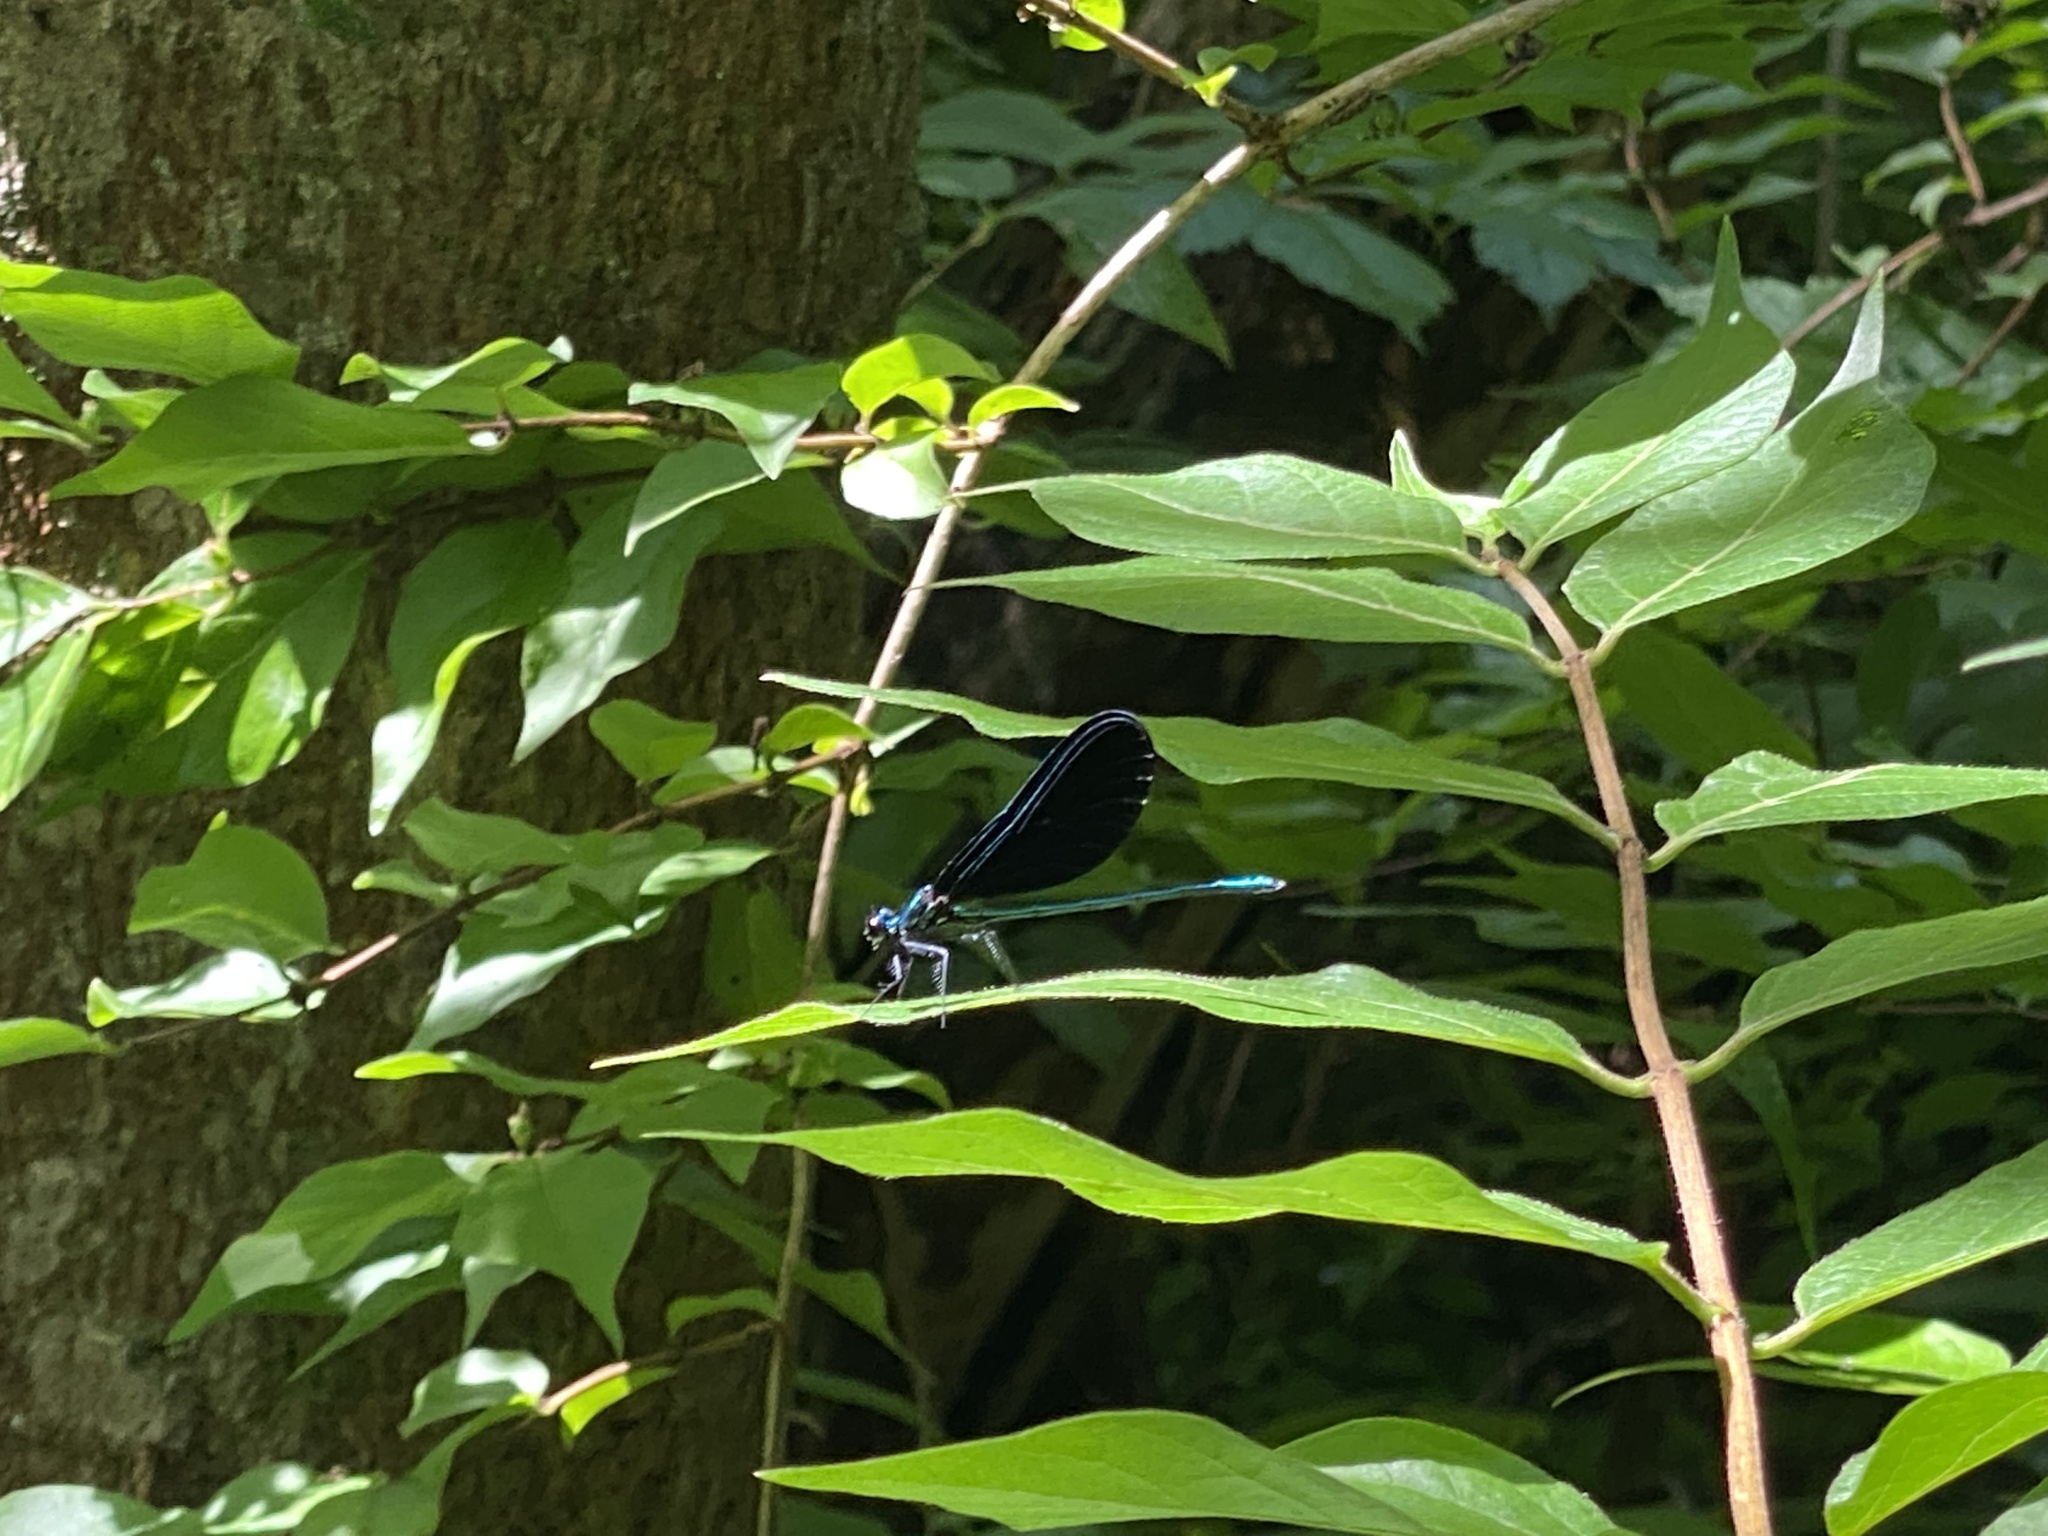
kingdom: Animalia
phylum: Arthropoda
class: Insecta
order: Odonata
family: Calopterygidae
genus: Calopteryx
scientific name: Calopteryx maculata
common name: Ebony jewelwing
